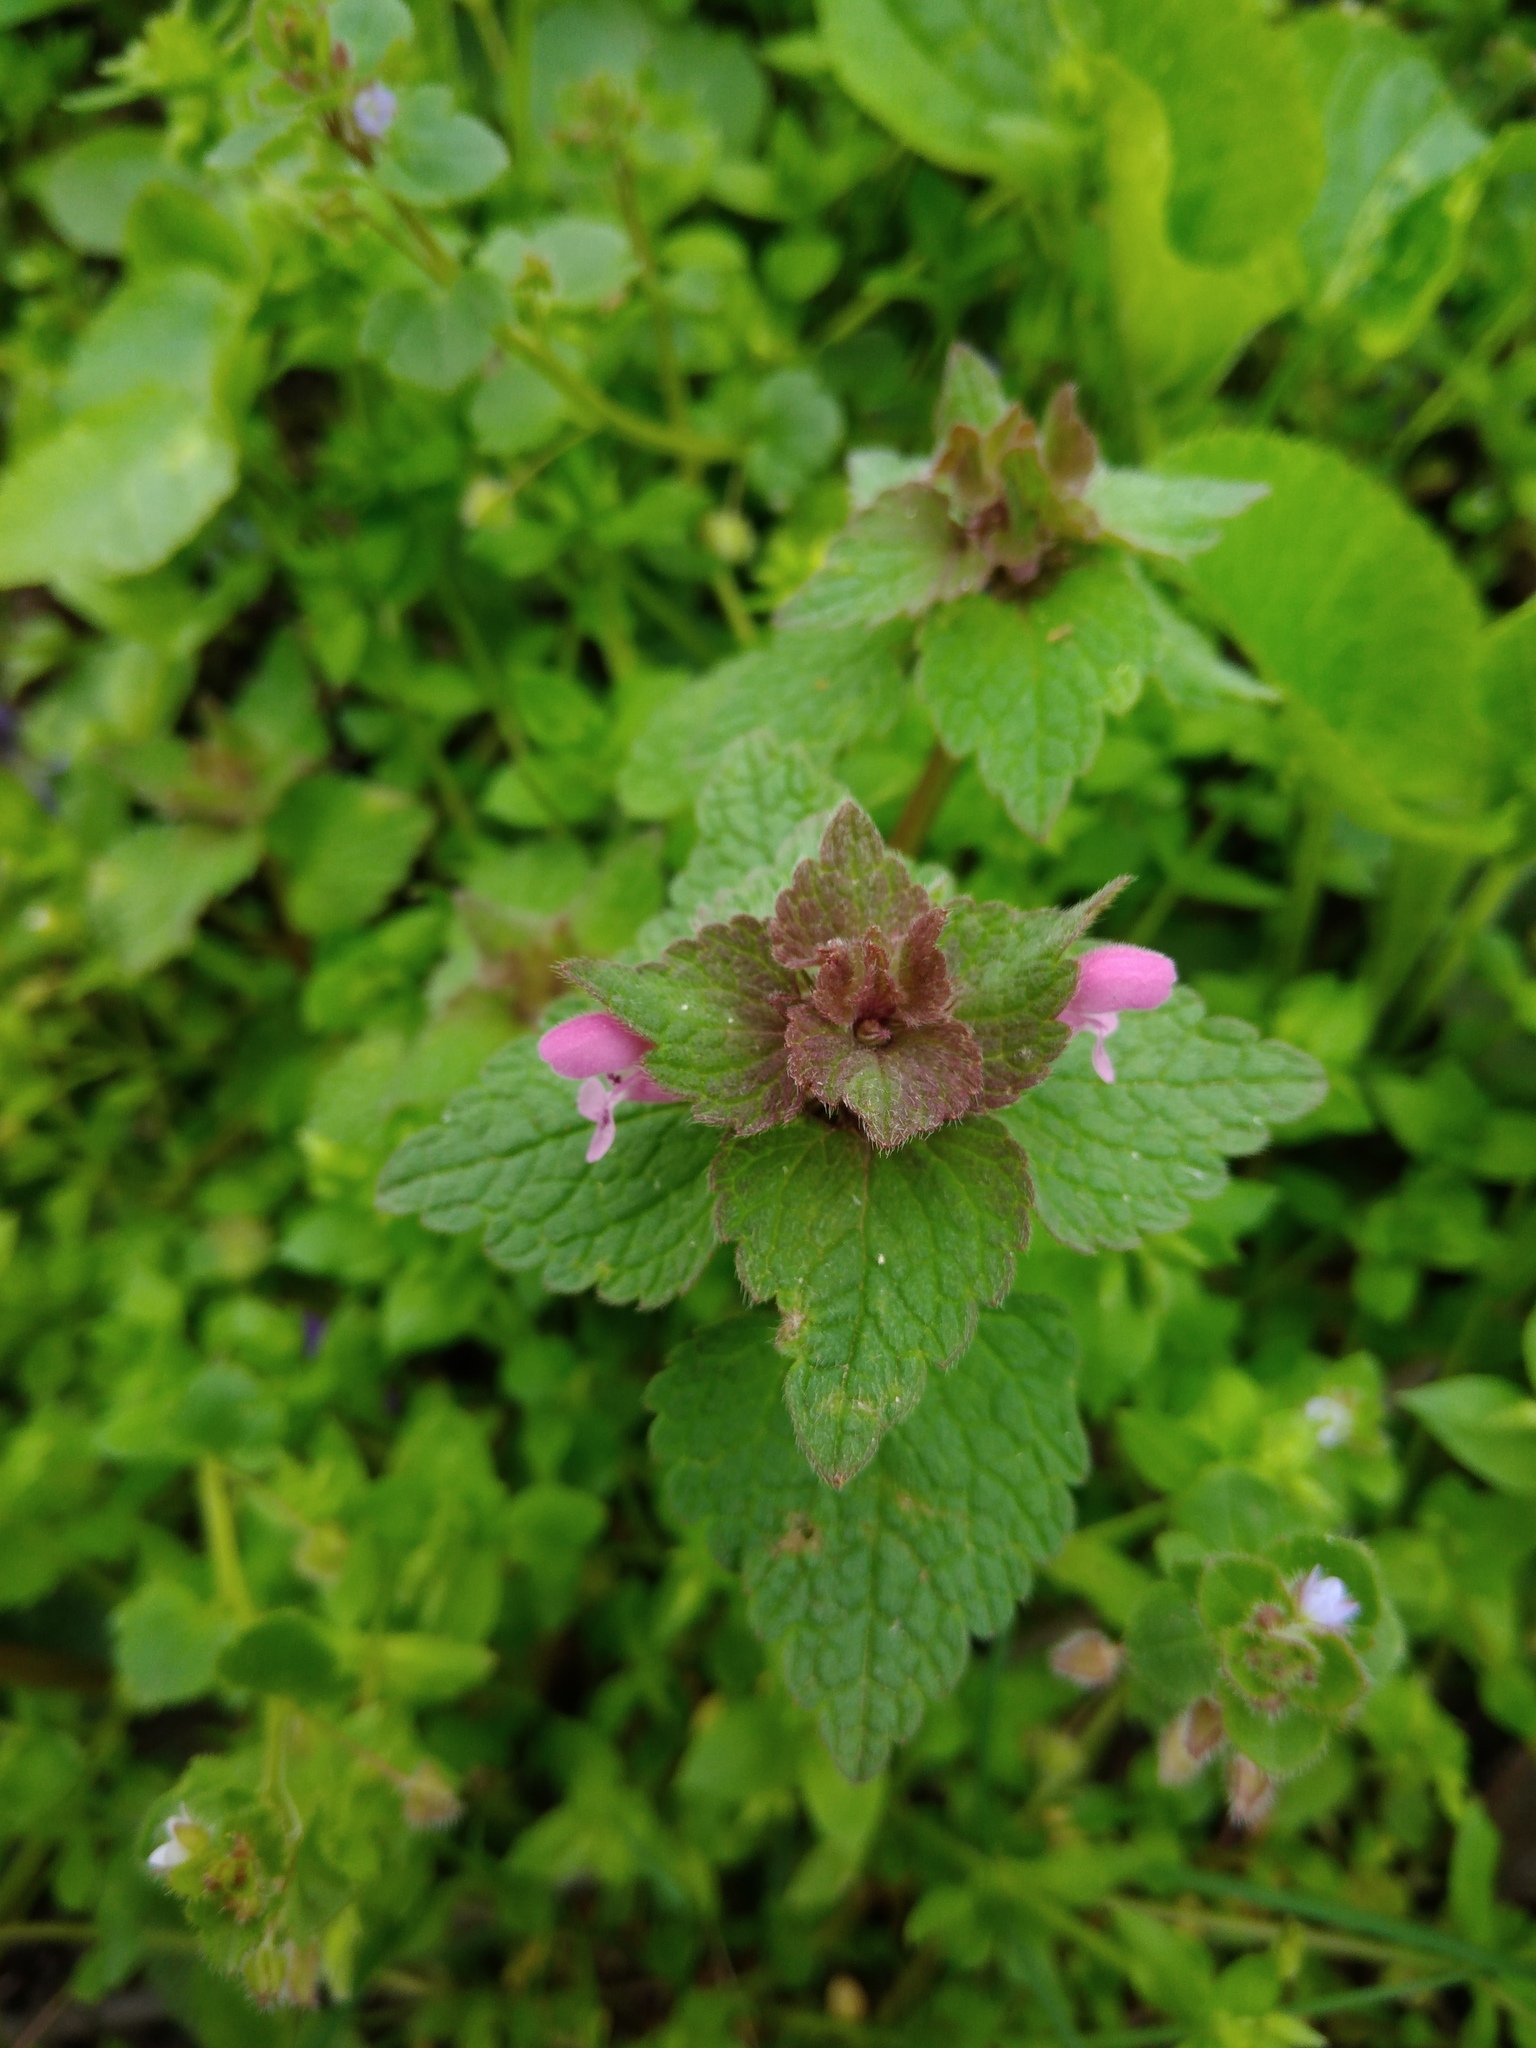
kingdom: Plantae
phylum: Tracheophyta
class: Magnoliopsida
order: Lamiales
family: Lamiaceae
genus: Lamium
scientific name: Lamium purpureum
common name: Red dead-nettle
